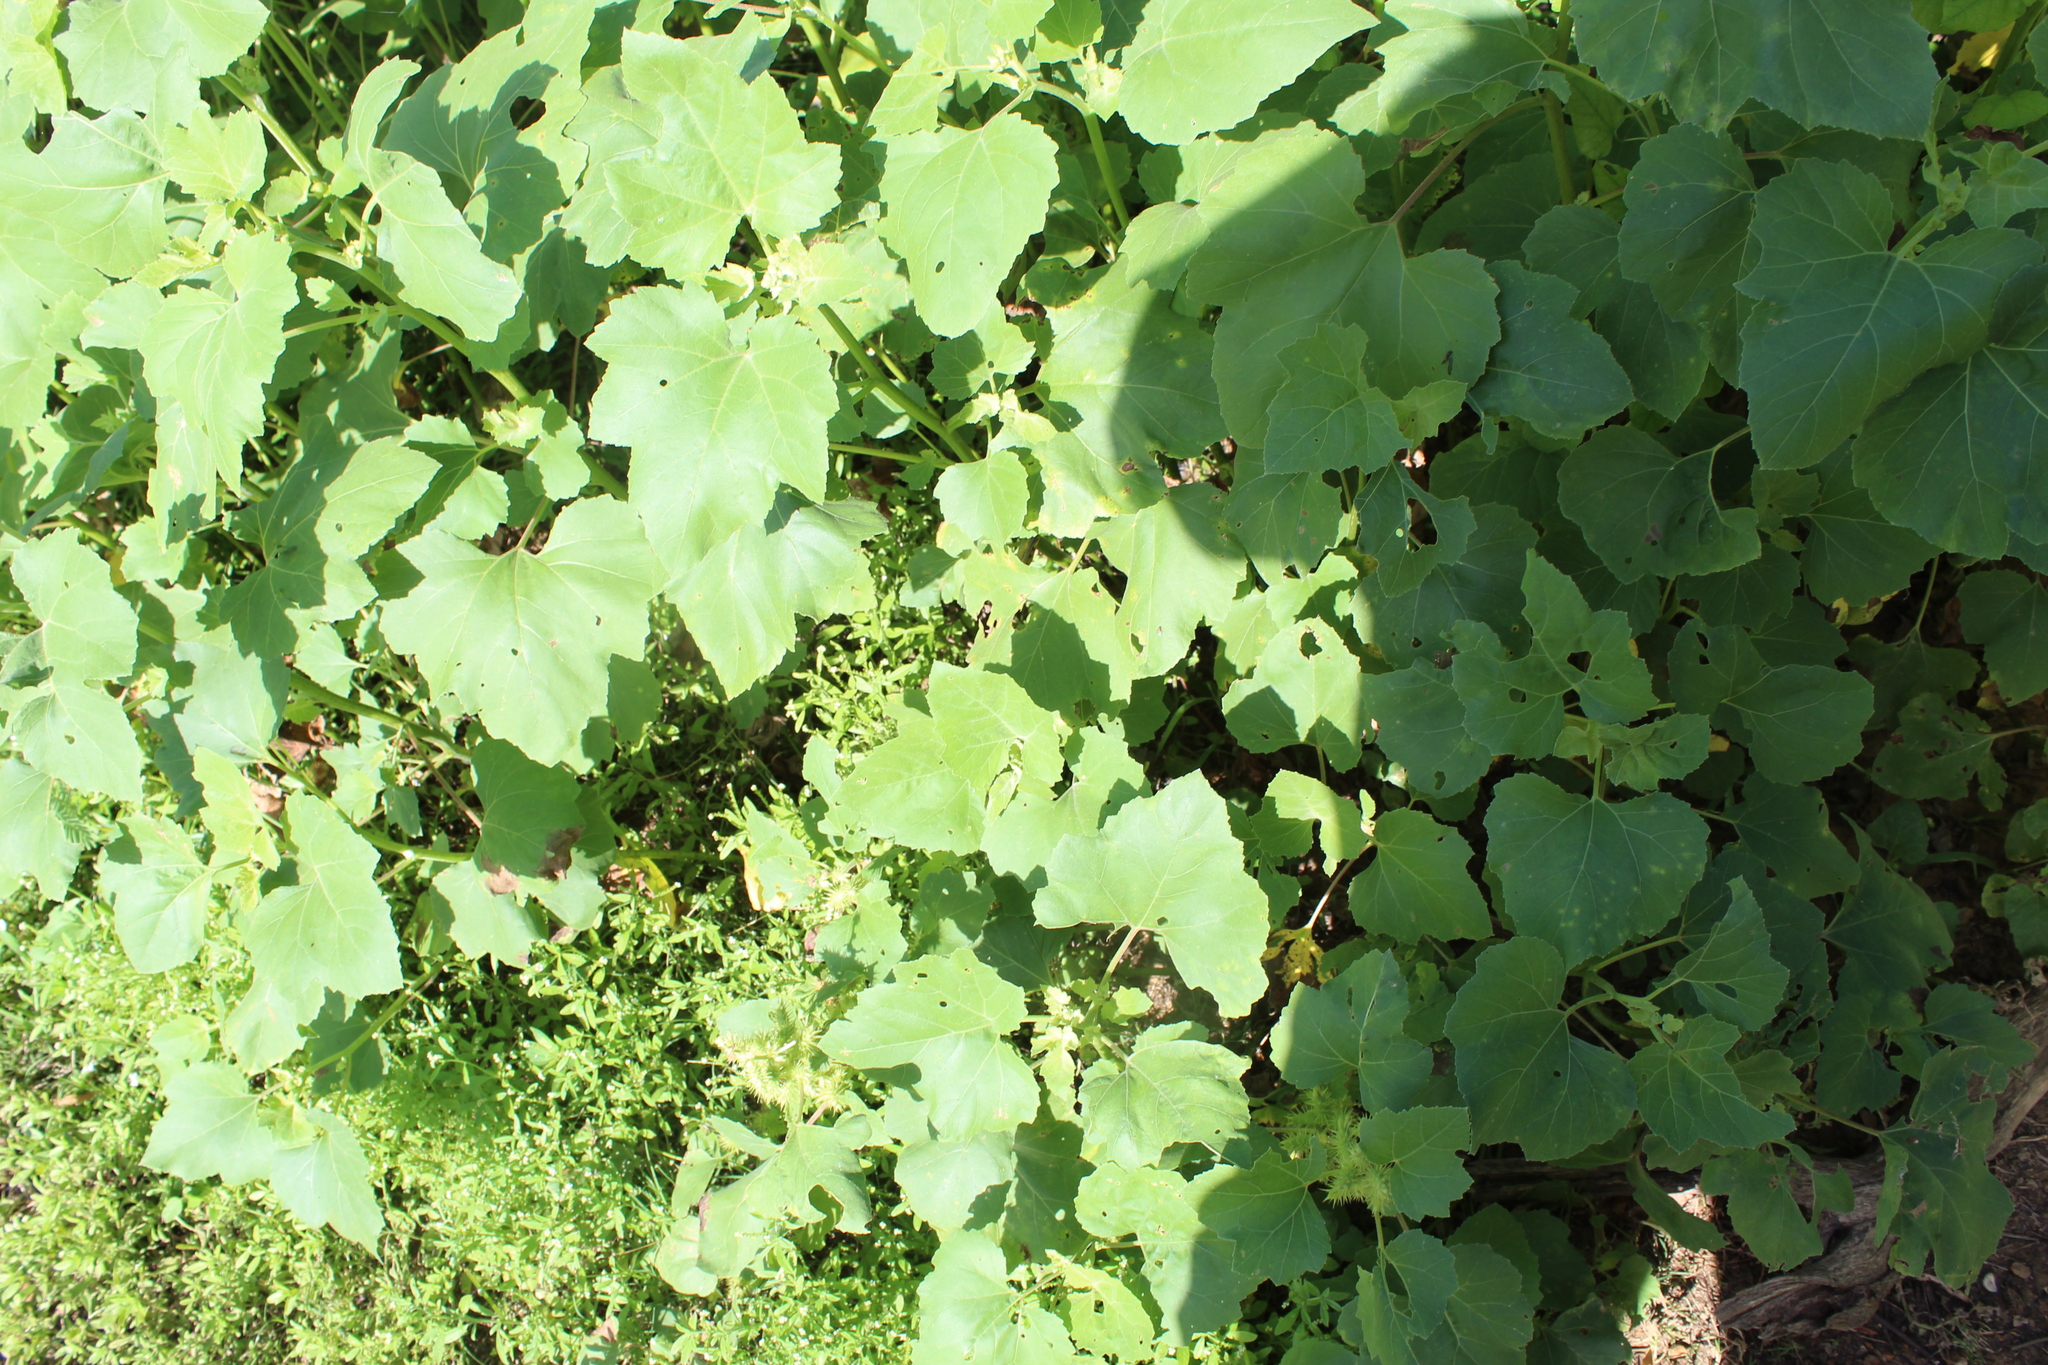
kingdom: Plantae
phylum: Tracheophyta
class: Magnoliopsida
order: Asterales
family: Asteraceae
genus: Xanthium
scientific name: Xanthium strumarium
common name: Rough cocklebur
